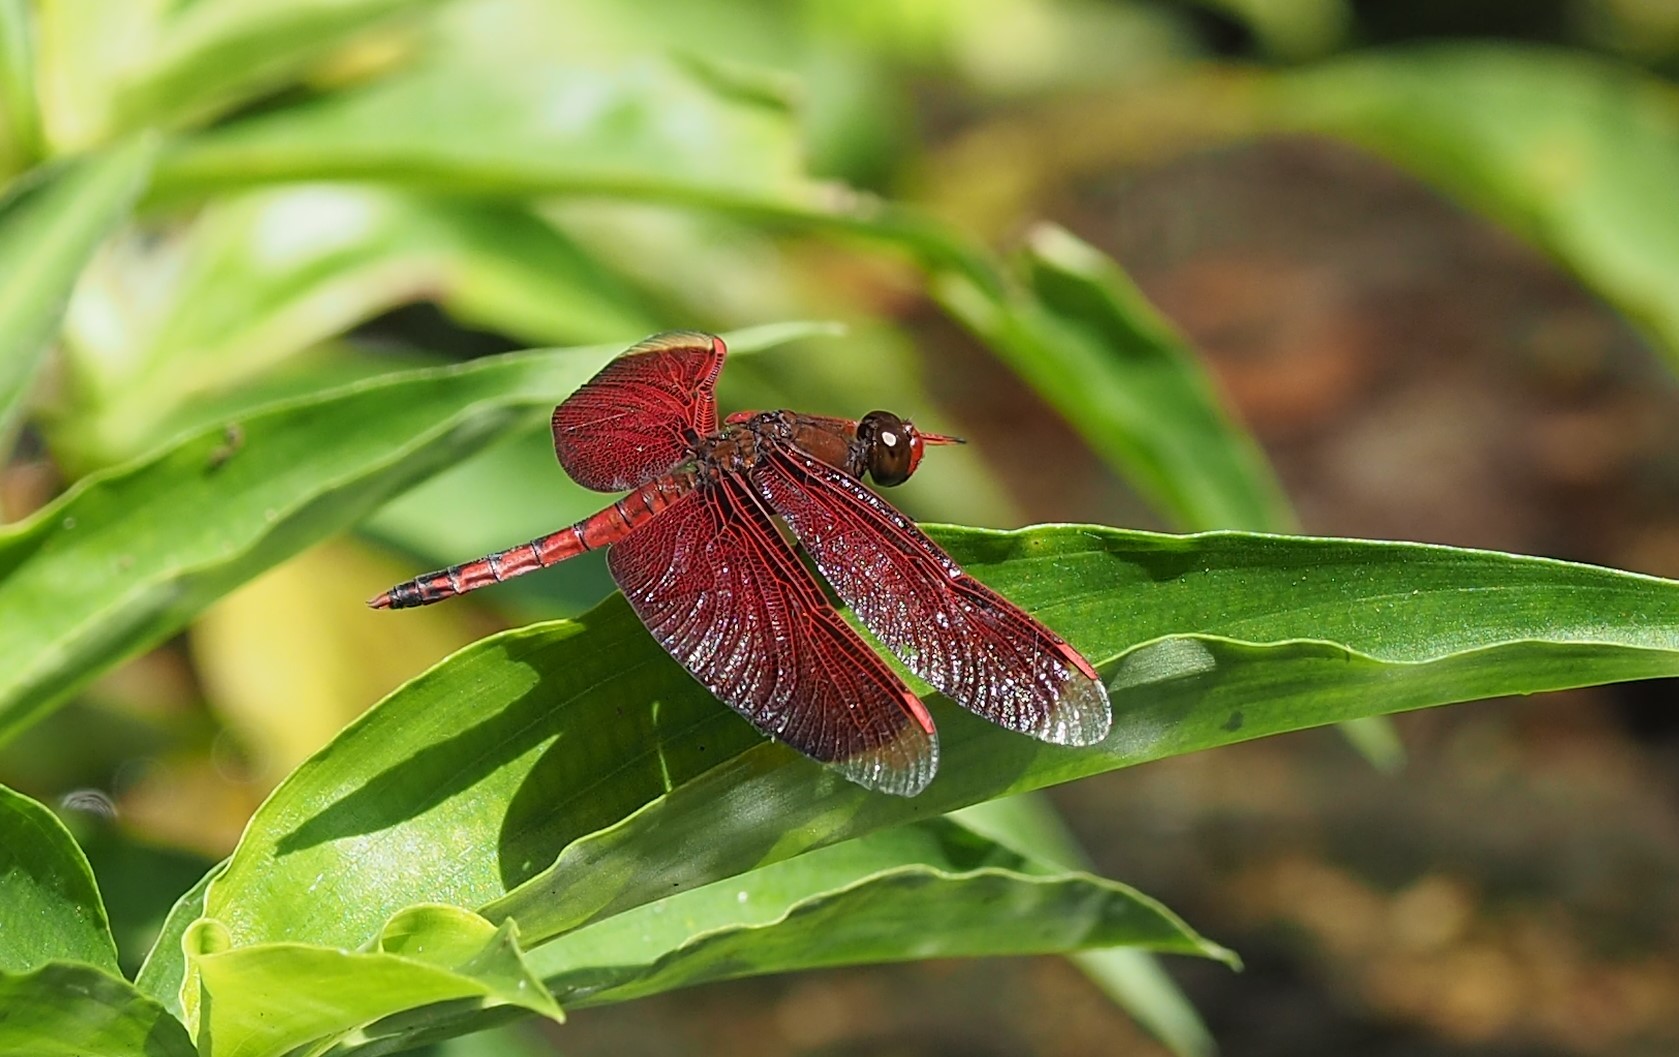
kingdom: Animalia
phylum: Arthropoda
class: Insecta
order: Odonata
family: Libellulidae
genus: Neurothemis
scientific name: Neurothemis taiwanensis
